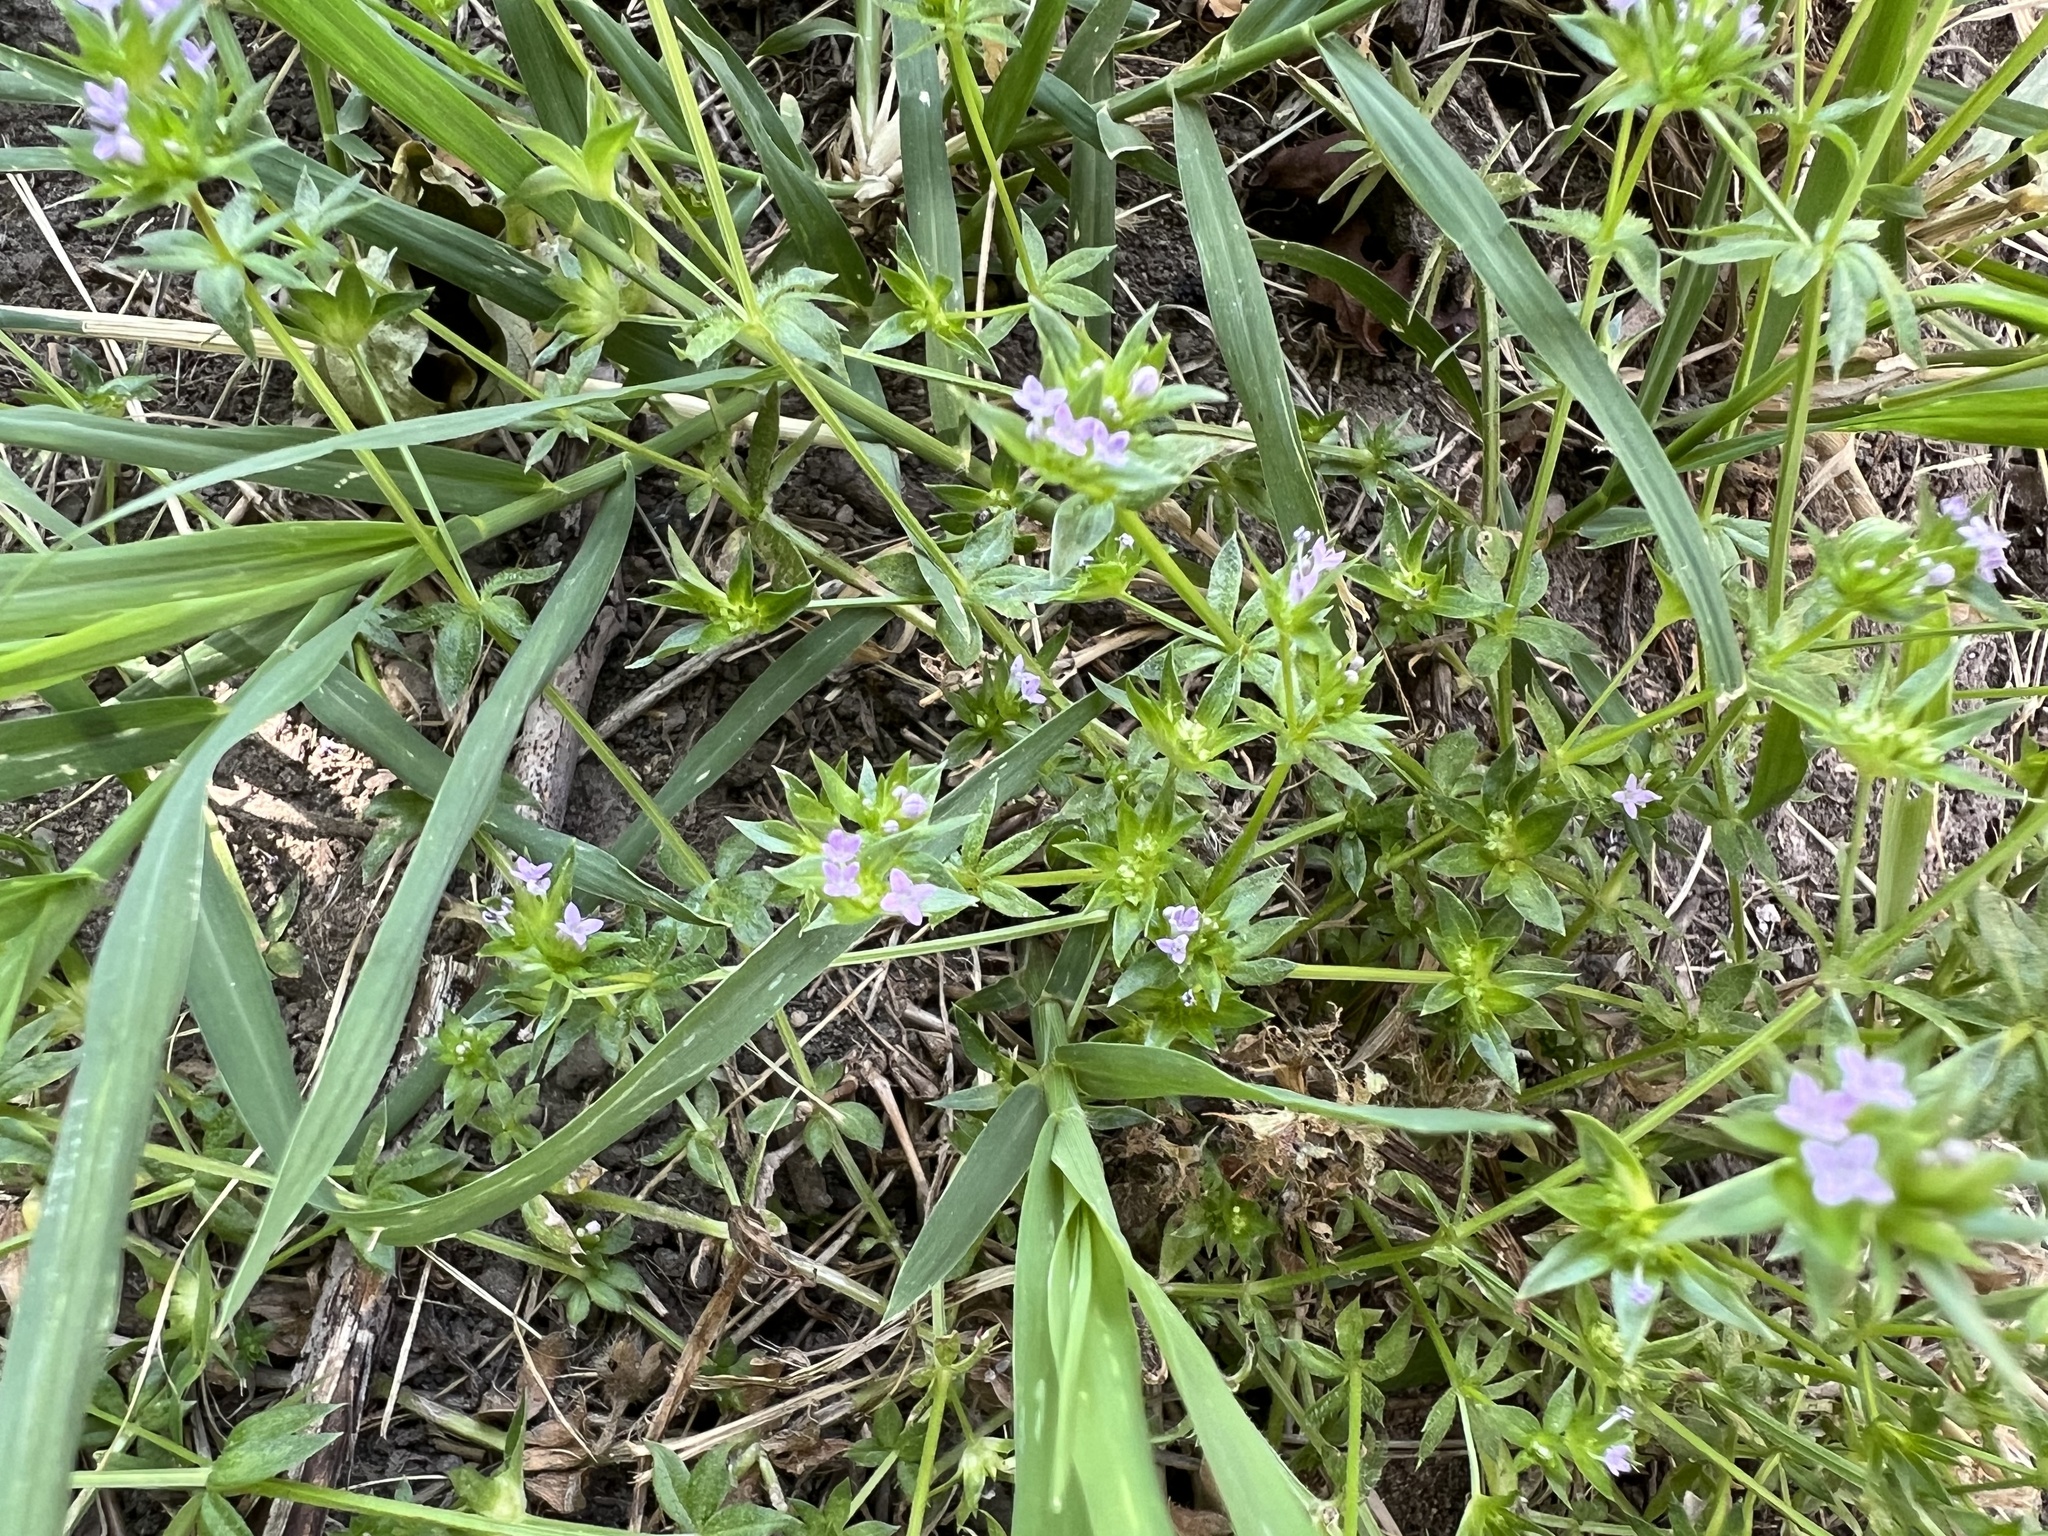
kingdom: Plantae
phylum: Tracheophyta
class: Magnoliopsida
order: Gentianales
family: Rubiaceae
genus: Sherardia
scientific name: Sherardia arvensis
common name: Field madder
